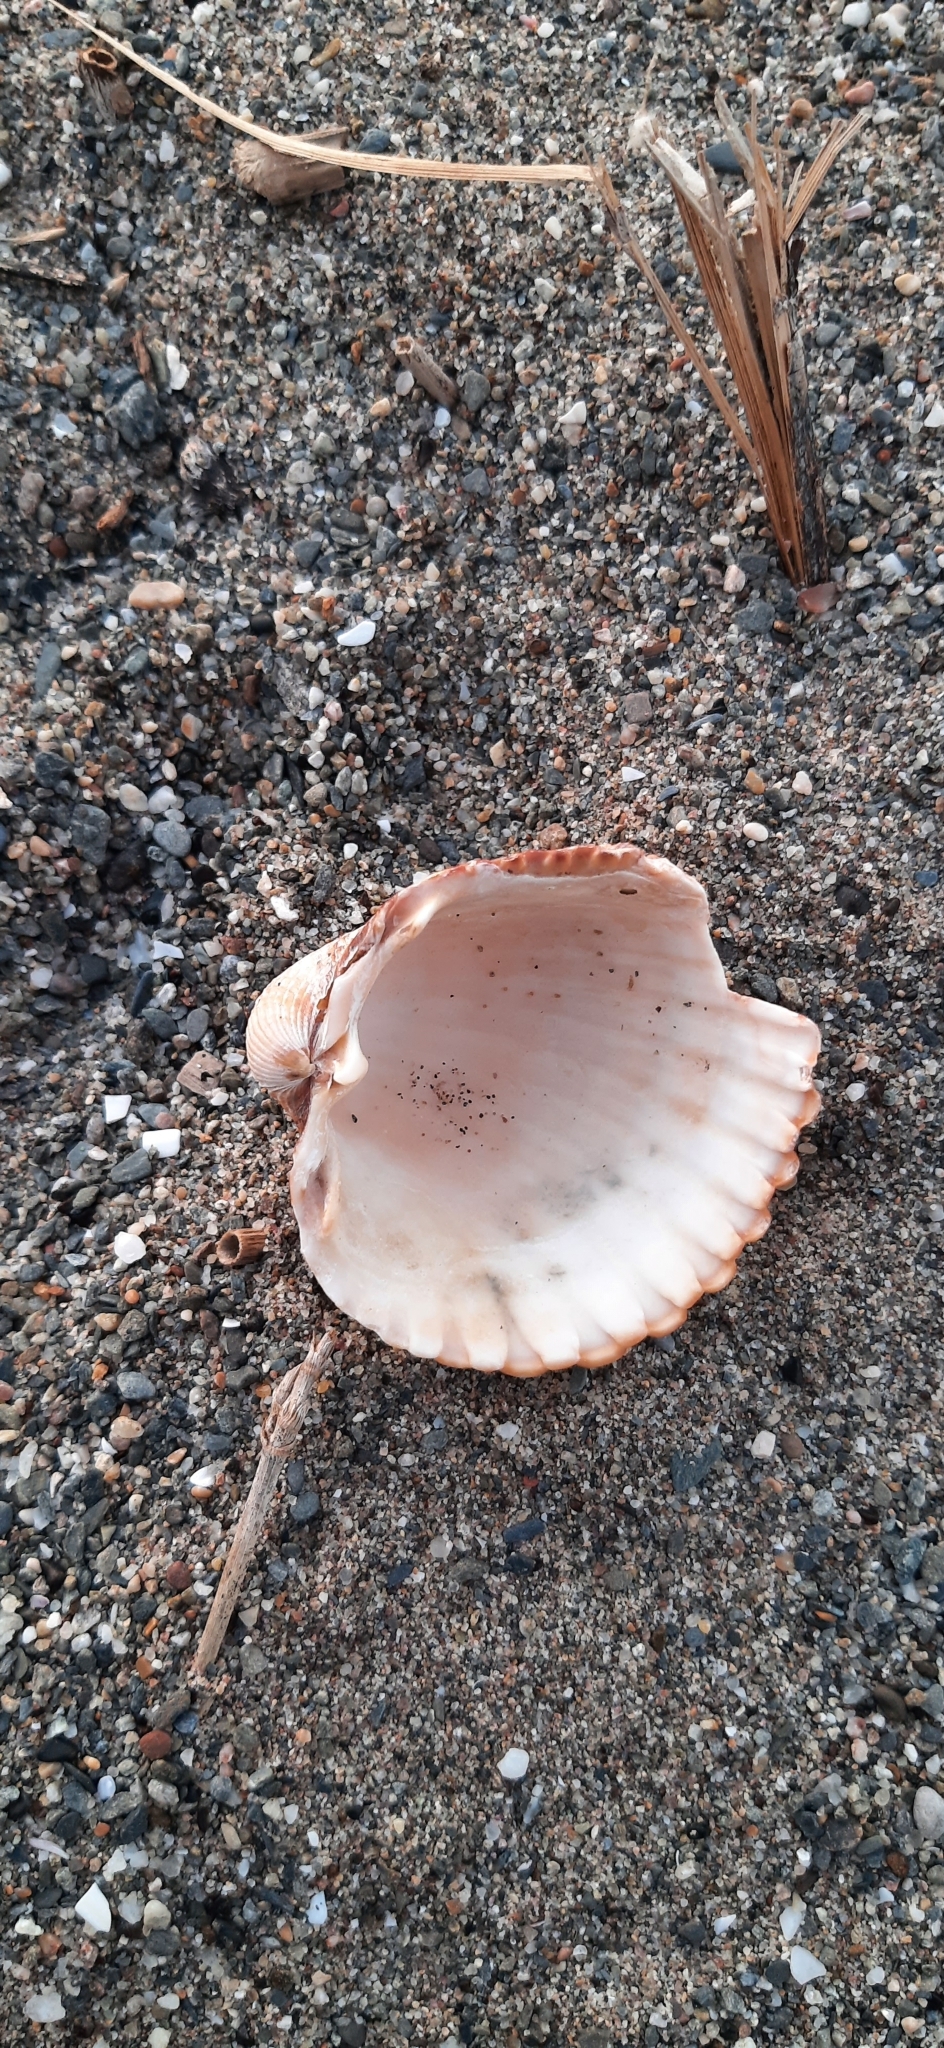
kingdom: Animalia
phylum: Mollusca
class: Bivalvia
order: Cardiida
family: Cardiidae
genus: Acanthocardia
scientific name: Acanthocardia tuberculata
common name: Rough cockle
